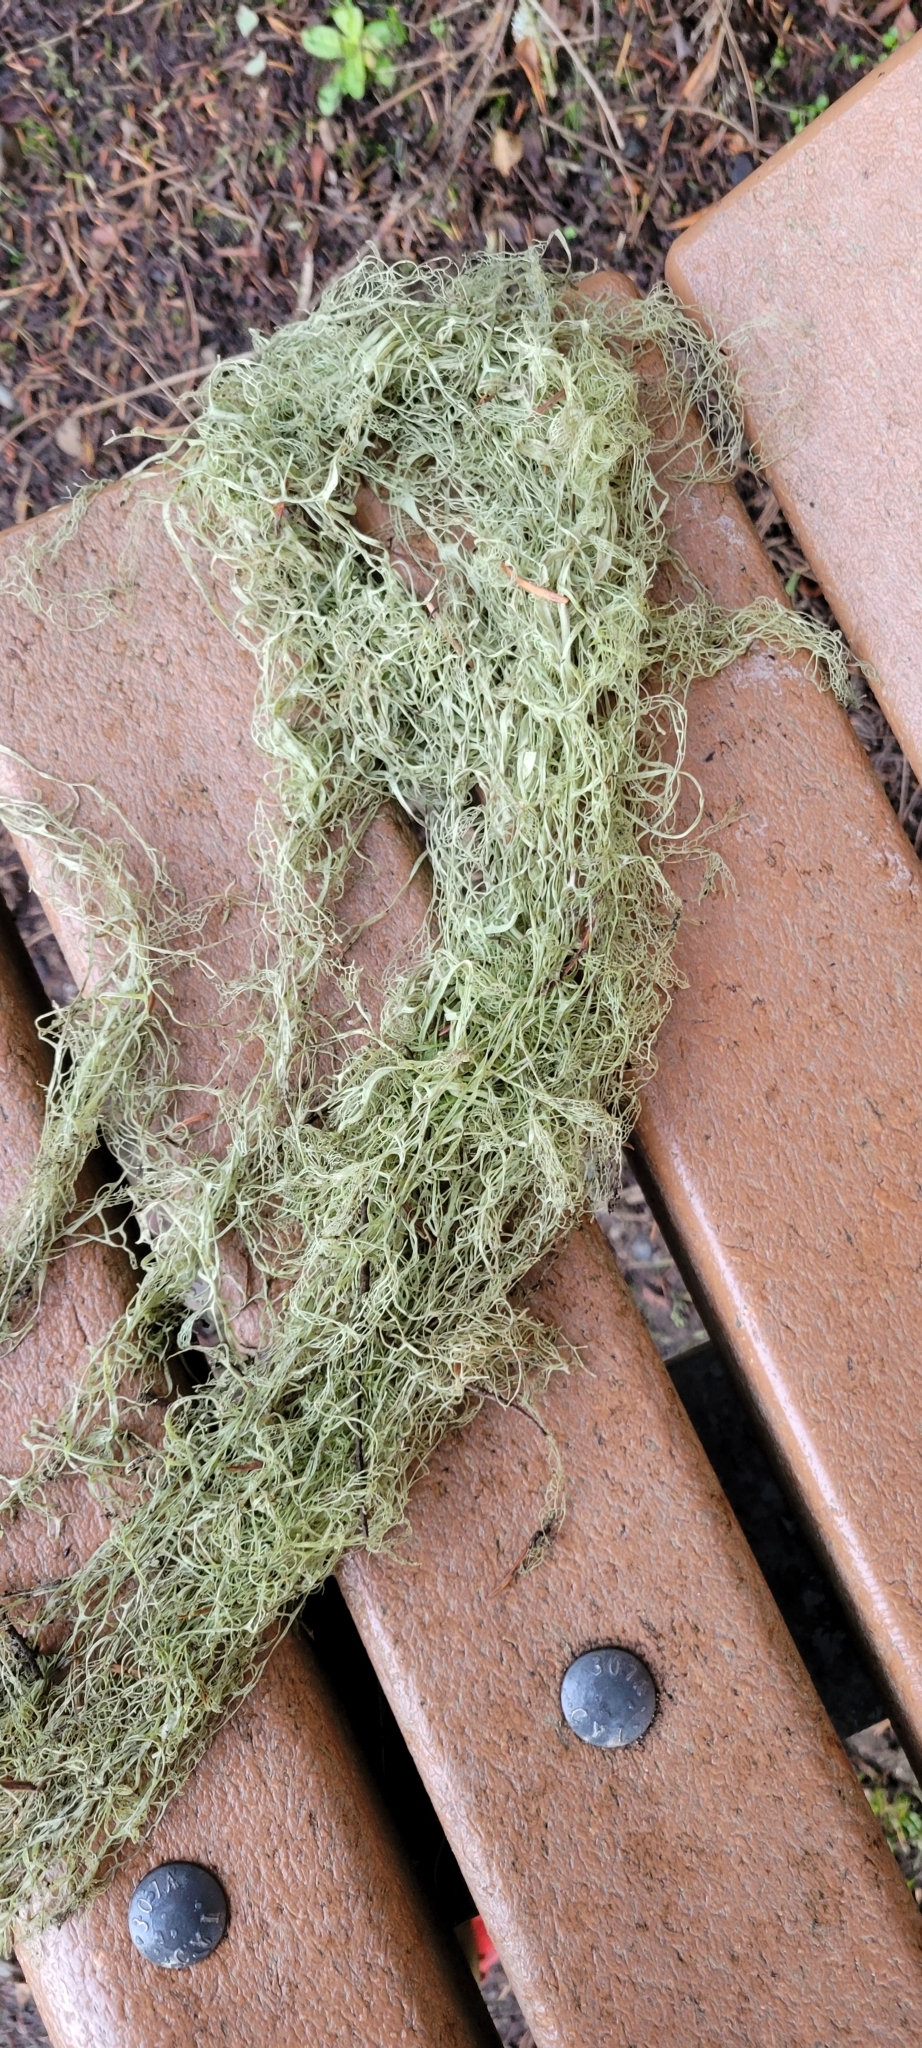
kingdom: Fungi
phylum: Ascomycota
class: Lecanoromycetes
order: Lecanorales
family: Ramalinaceae
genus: Ramalina
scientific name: Ramalina menziesii
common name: Lace lichen
